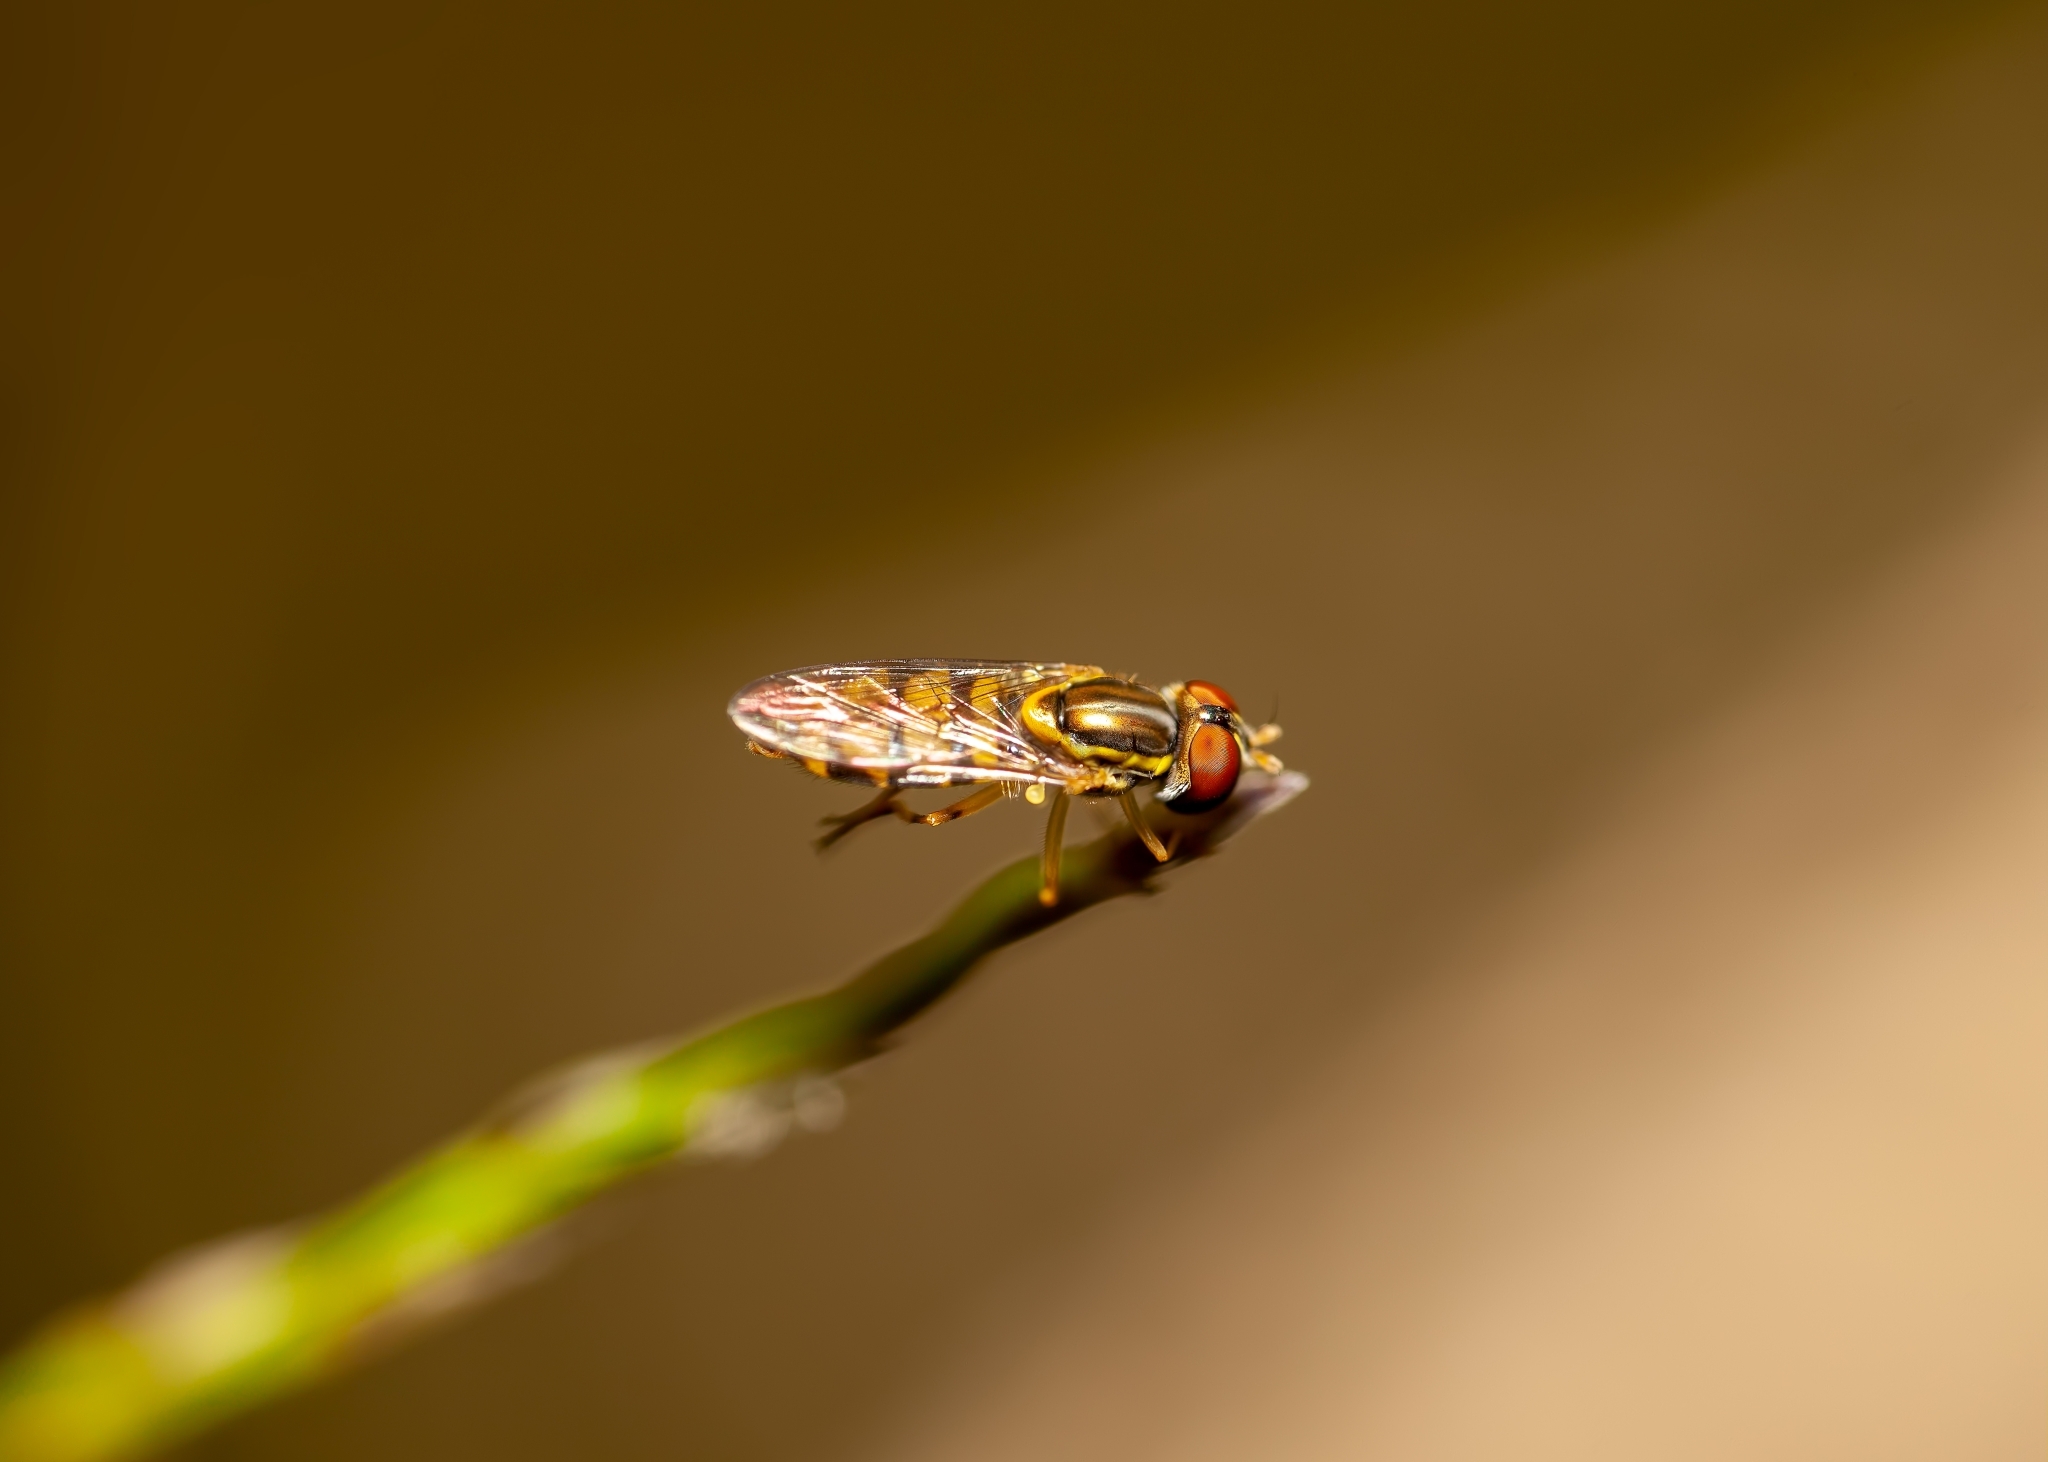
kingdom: Animalia
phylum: Arthropoda
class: Insecta
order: Diptera
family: Syrphidae
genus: Toxomerus
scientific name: Toxomerus floralis
